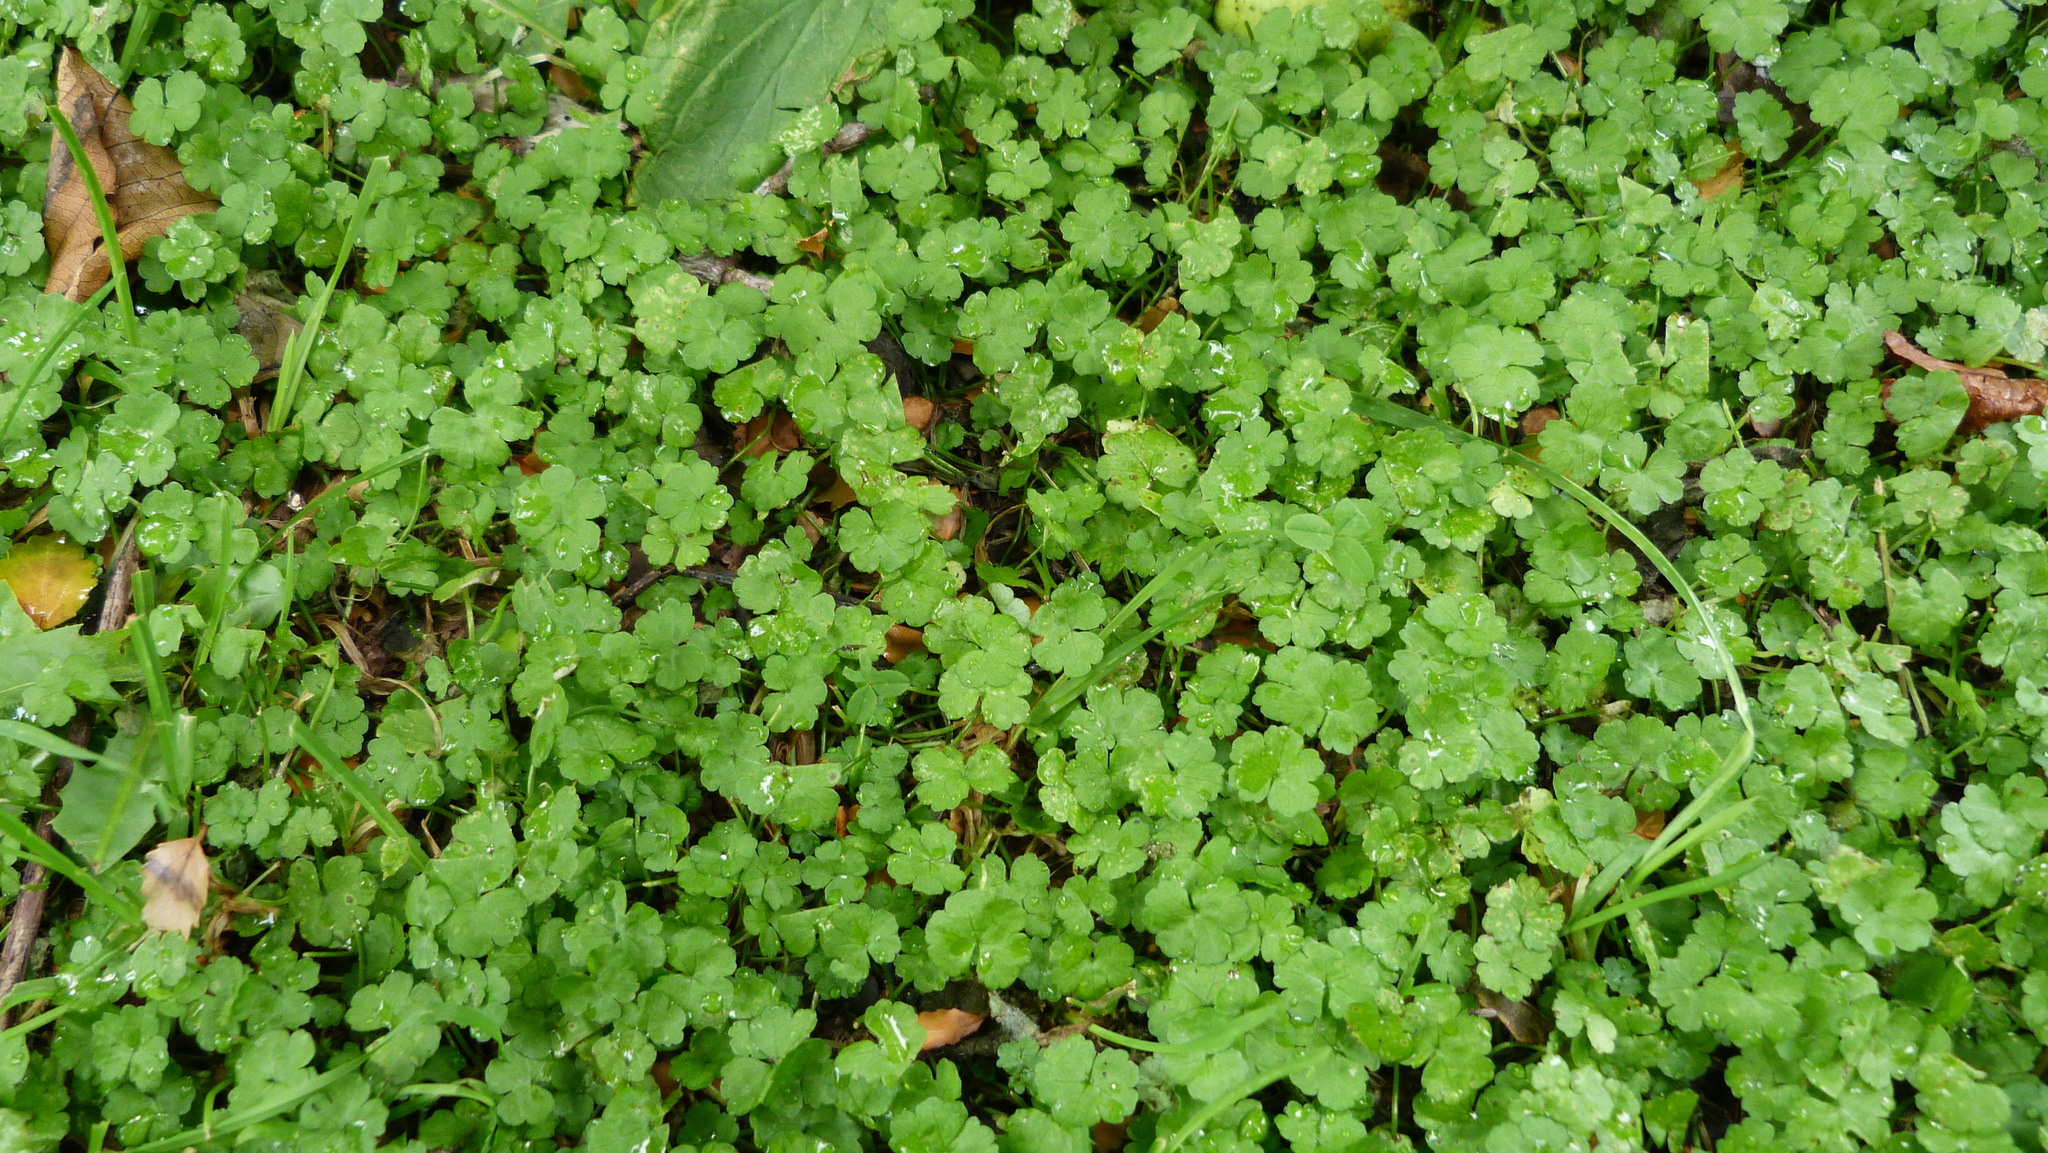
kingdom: Plantae
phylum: Tracheophyta
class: Magnoliopsida
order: Apiales
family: Araliaceae
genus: Hydrocotyle
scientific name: Hydrocotyle heteromeria
